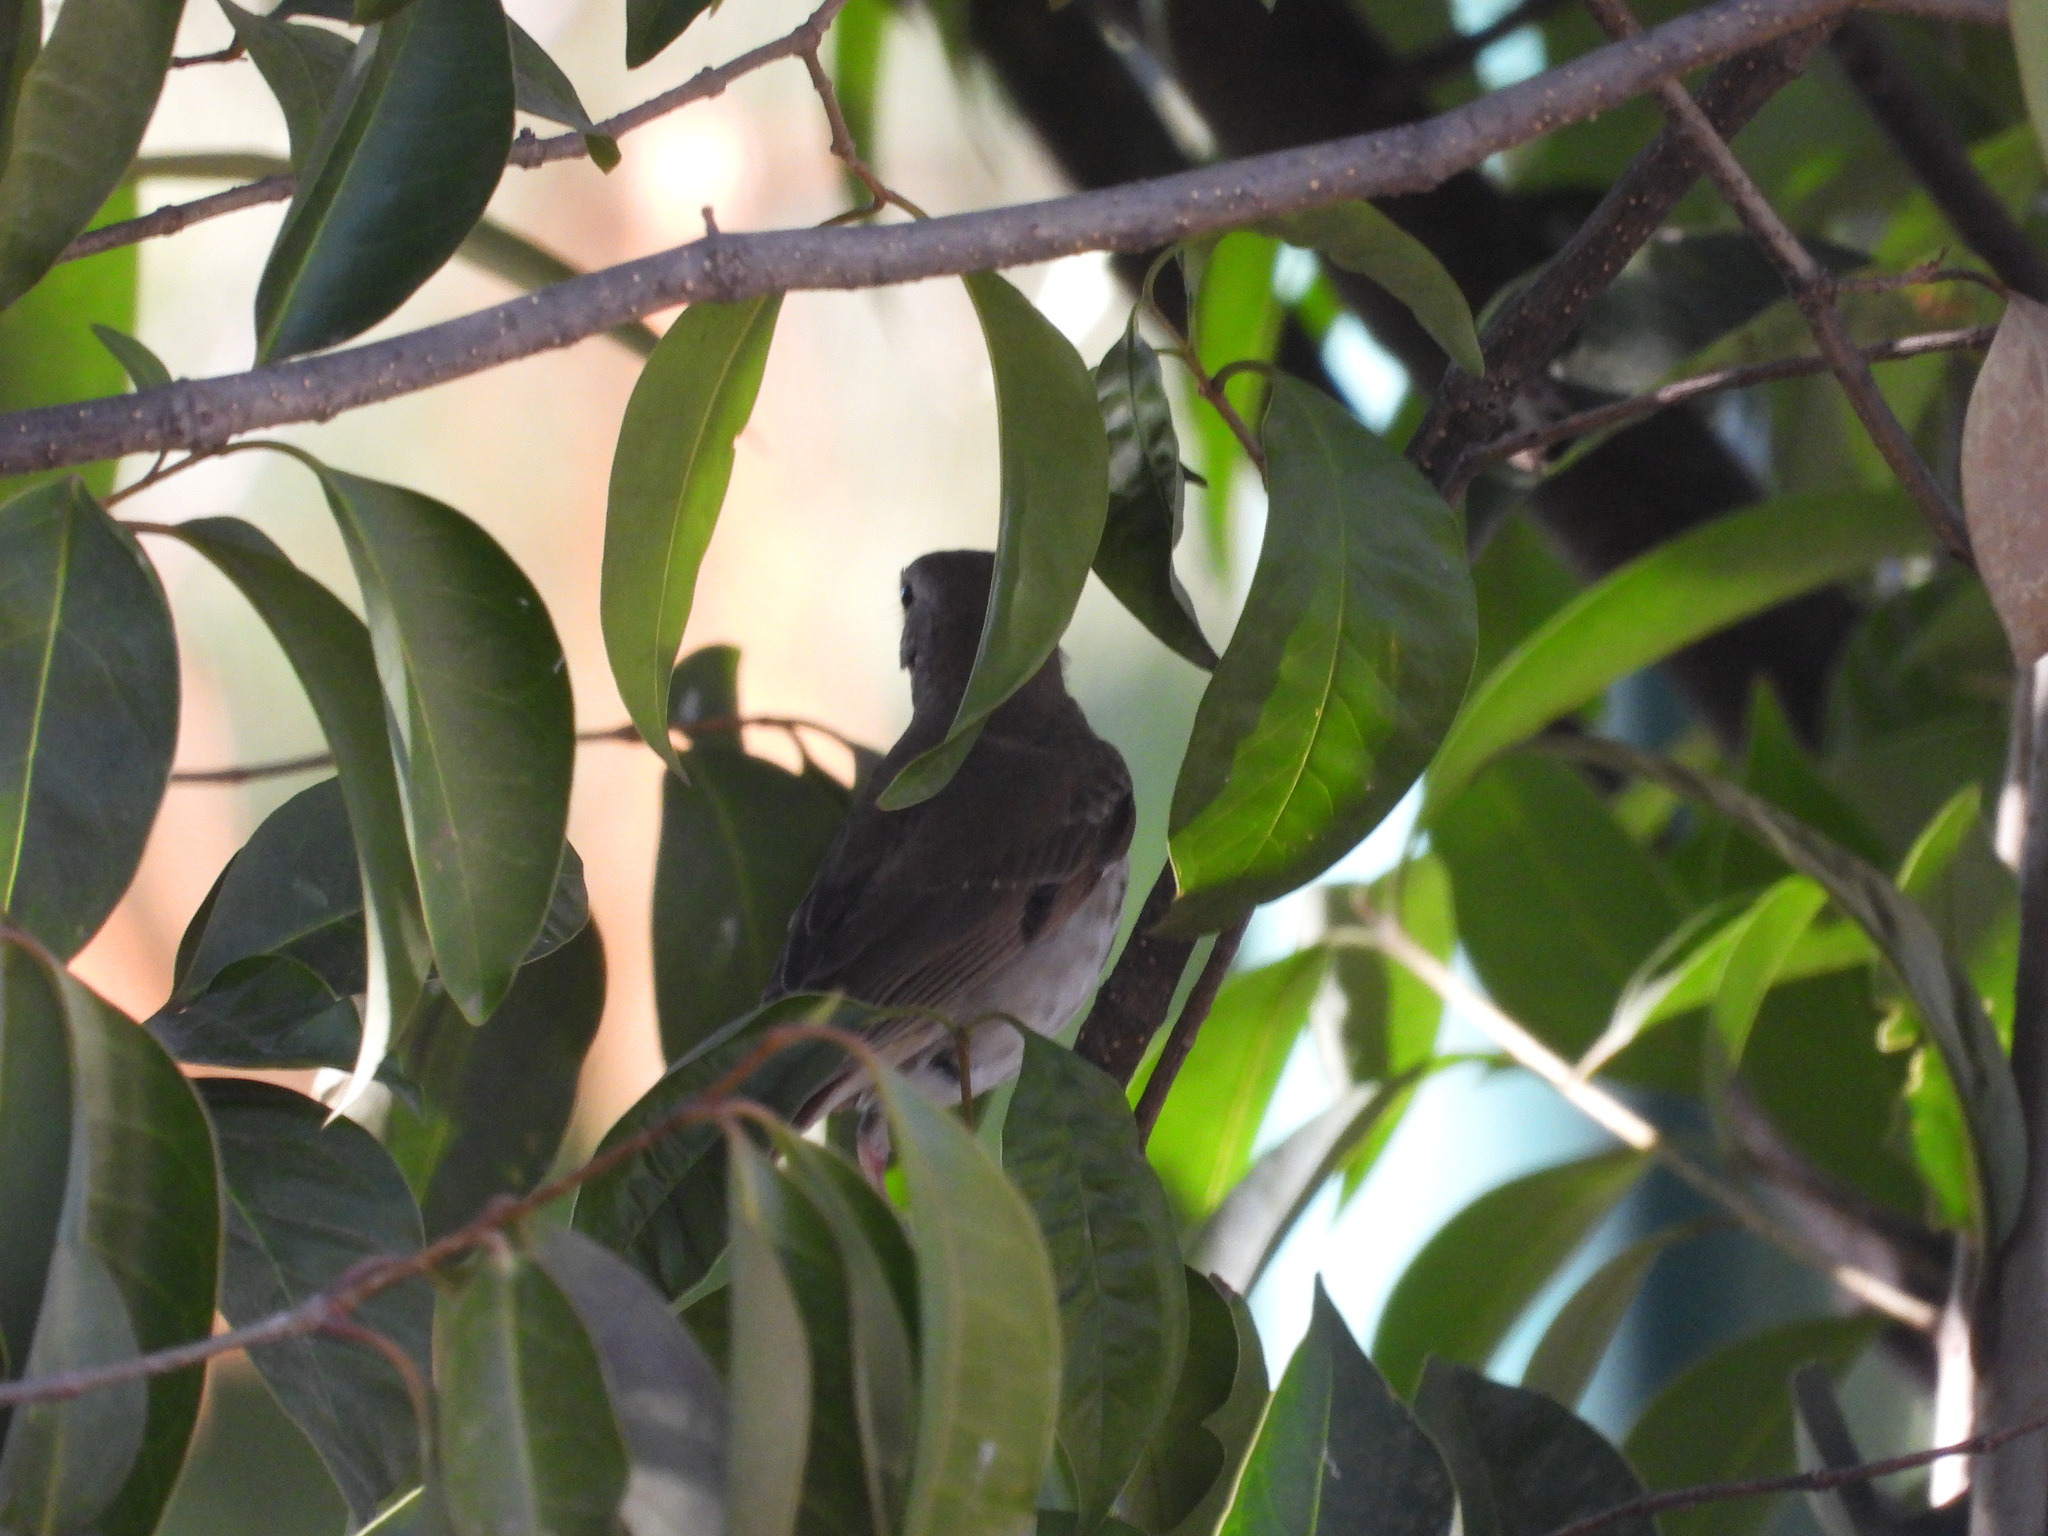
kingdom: Animalia
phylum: Chordata
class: Aves
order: Passeriformes
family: Turdidae
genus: Catharus
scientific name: Catharus guttatus
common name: Hermit thrush
